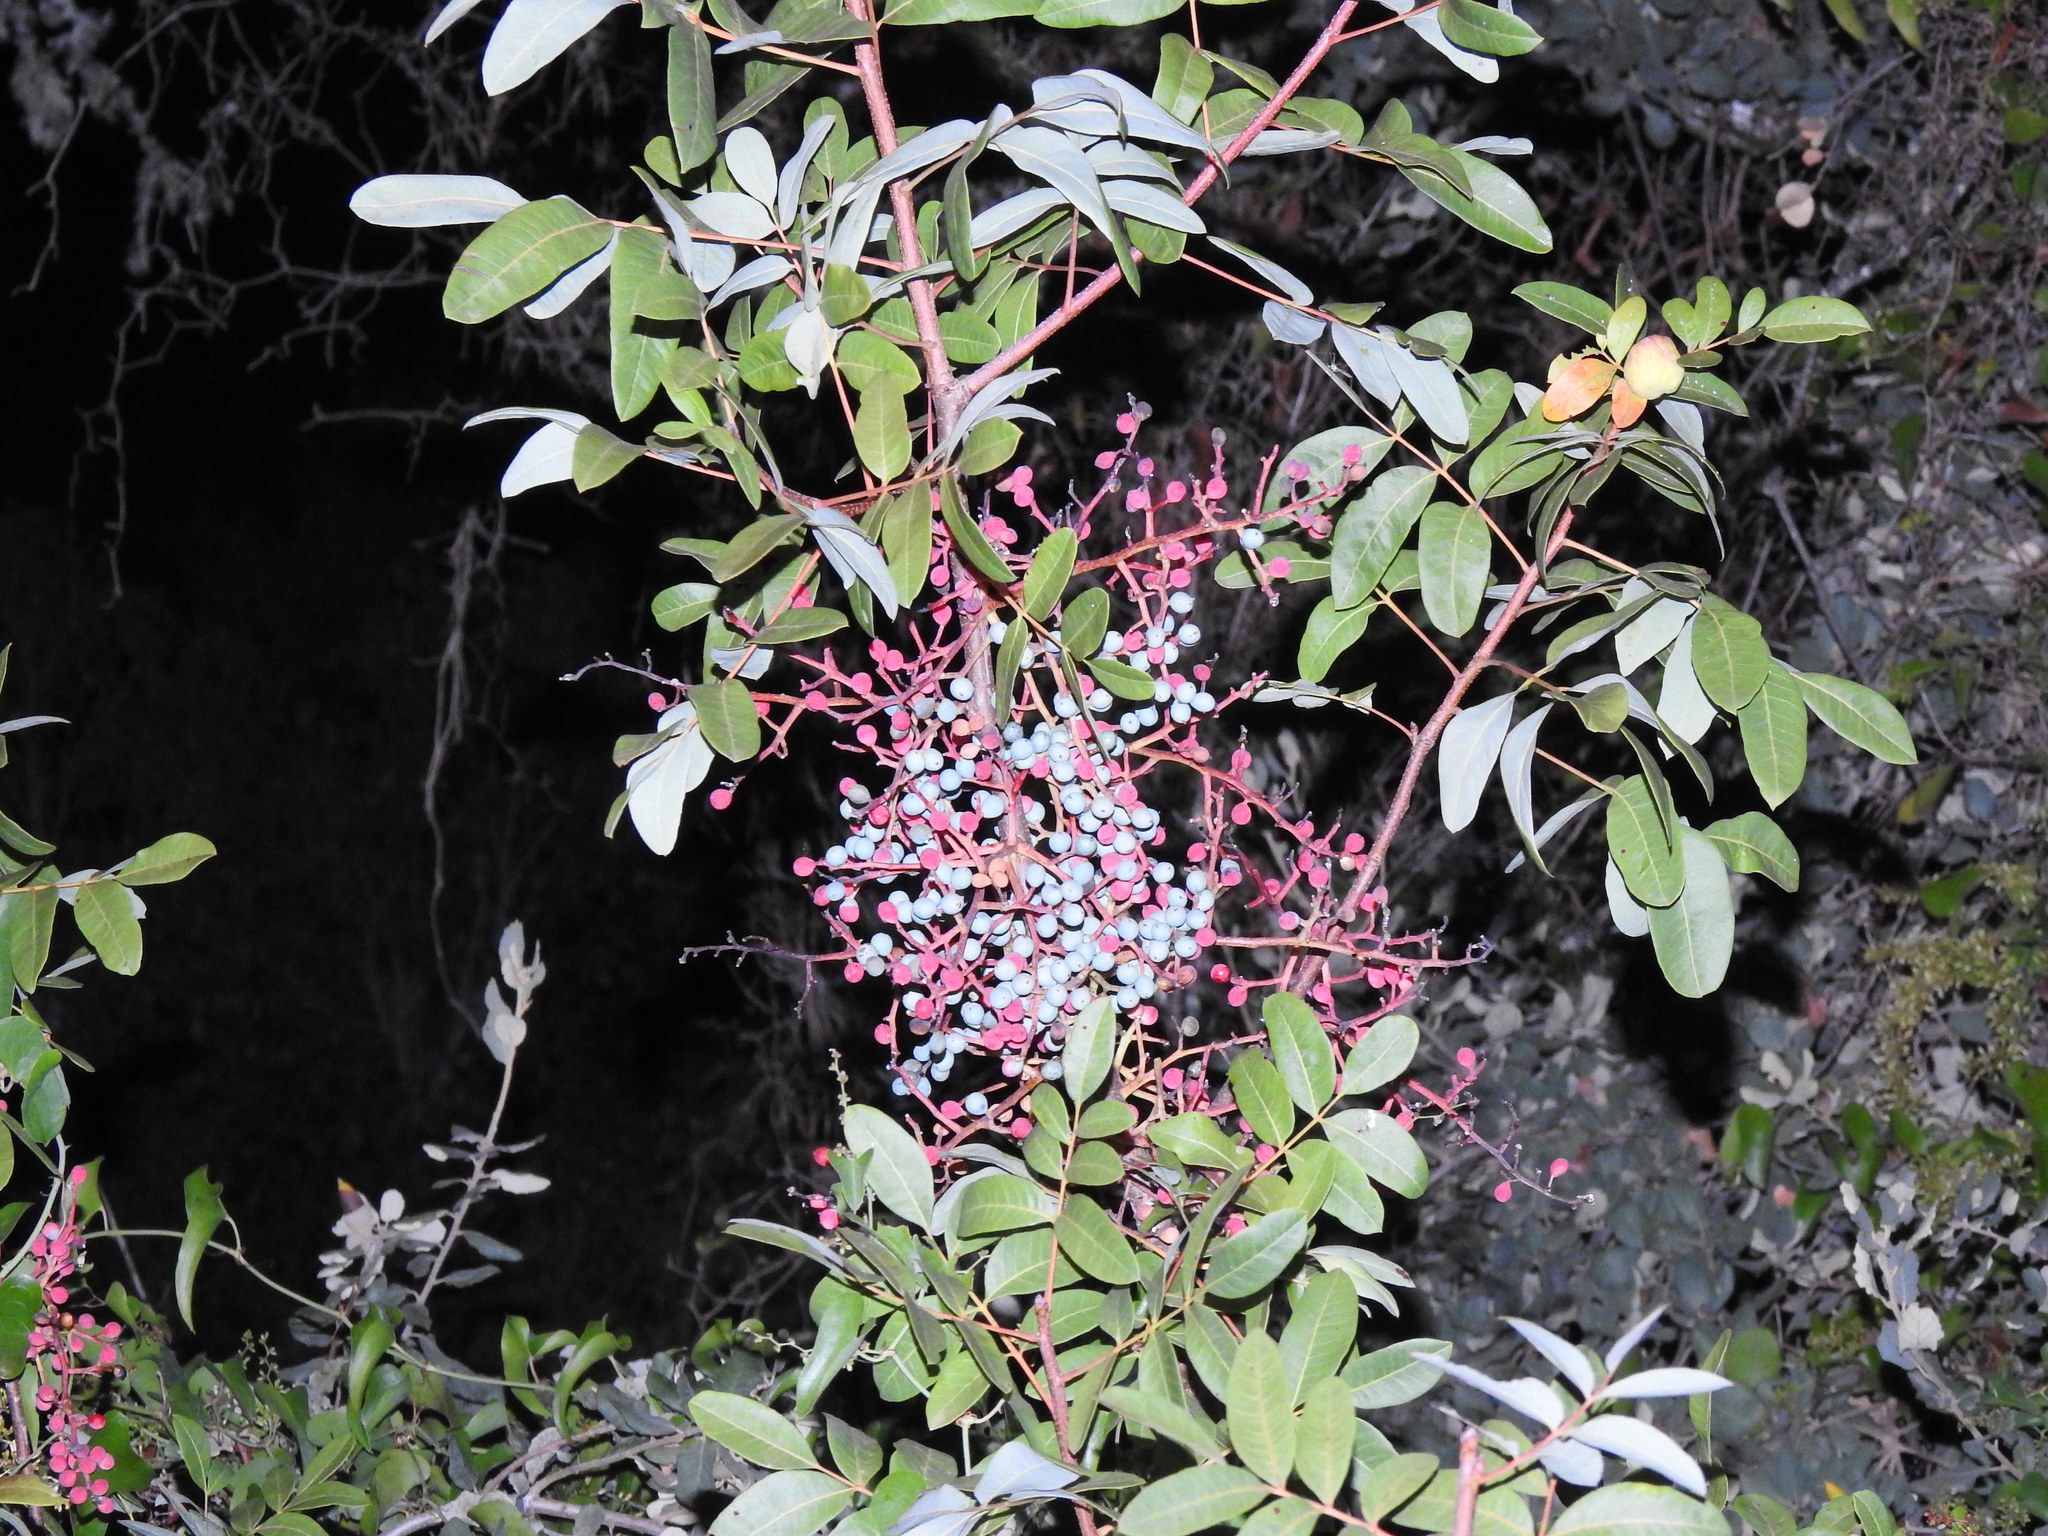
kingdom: Plantae
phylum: Tracheophyta
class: Magnoliopsida
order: Sapindales
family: Anacardiaceae
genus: Pistacia
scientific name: Pistacia terebinthus
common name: Terebinth
